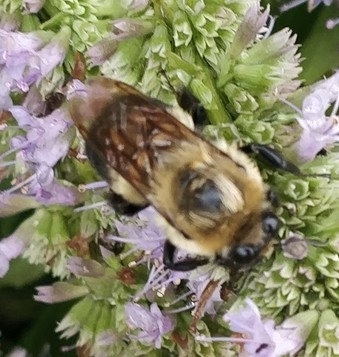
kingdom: Animalia
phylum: Arthropoda
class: Insecta
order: Hymenoptera
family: Apidae
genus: Bombus
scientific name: Bombus griseocollis
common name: Brown-belted bumble bee
